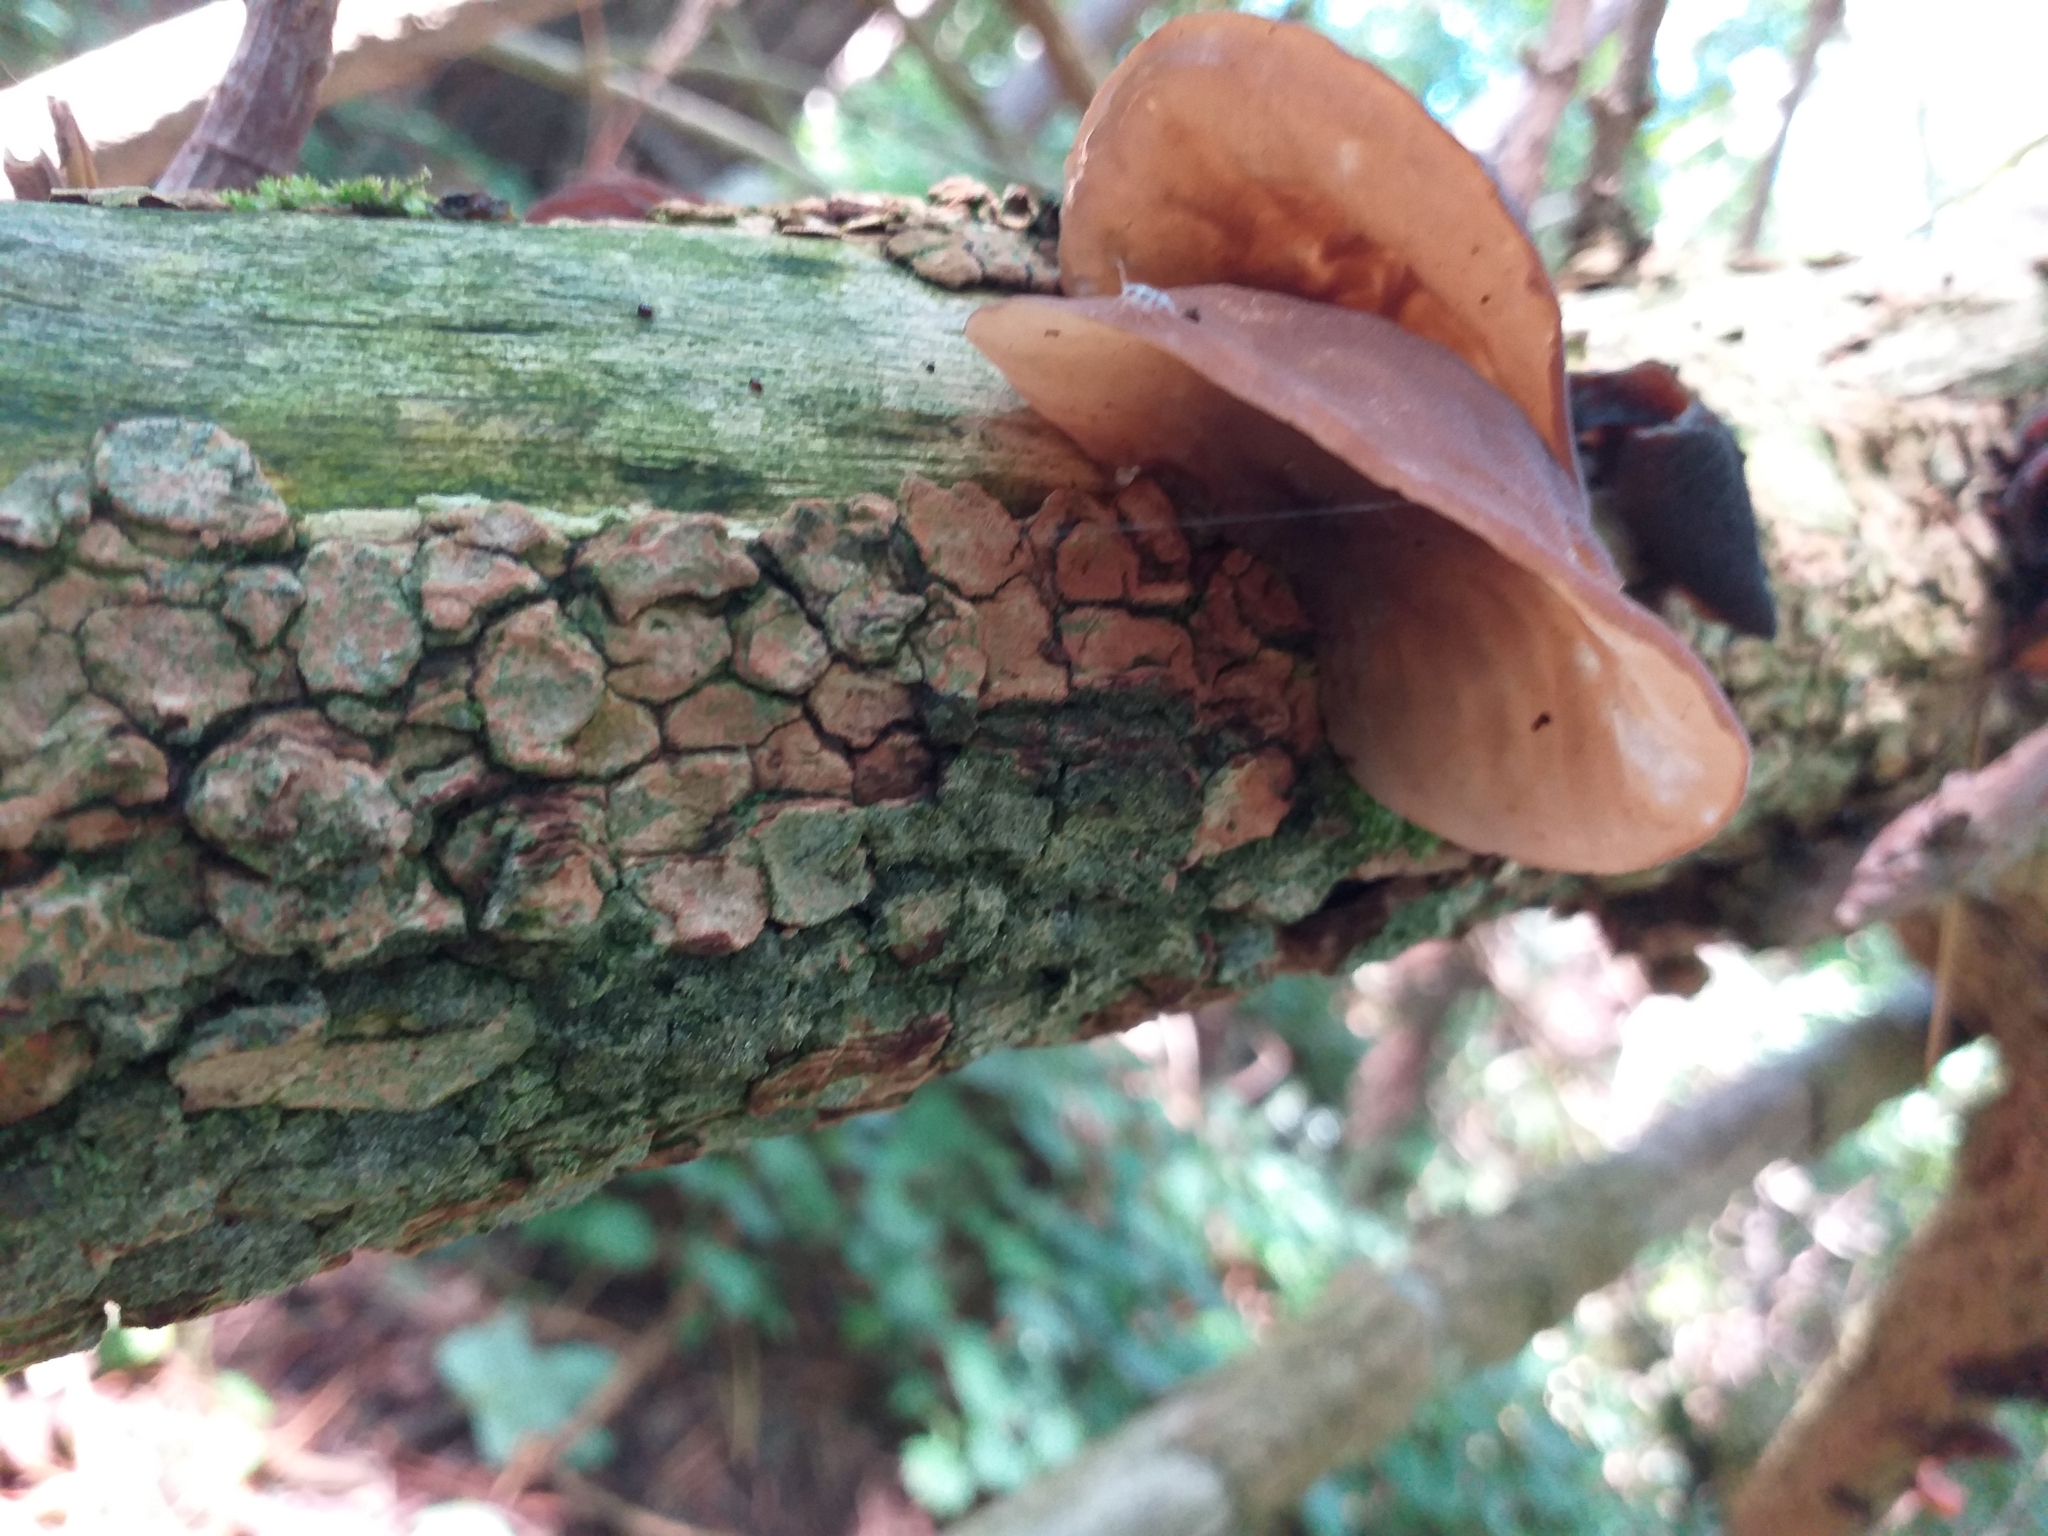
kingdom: Fungi
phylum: Basidiomycota
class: Agaricomycetes
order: Auriculariales
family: Auriculariaceae
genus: Auricularia
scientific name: Auricularia auricula-judae
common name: Jelly ear
